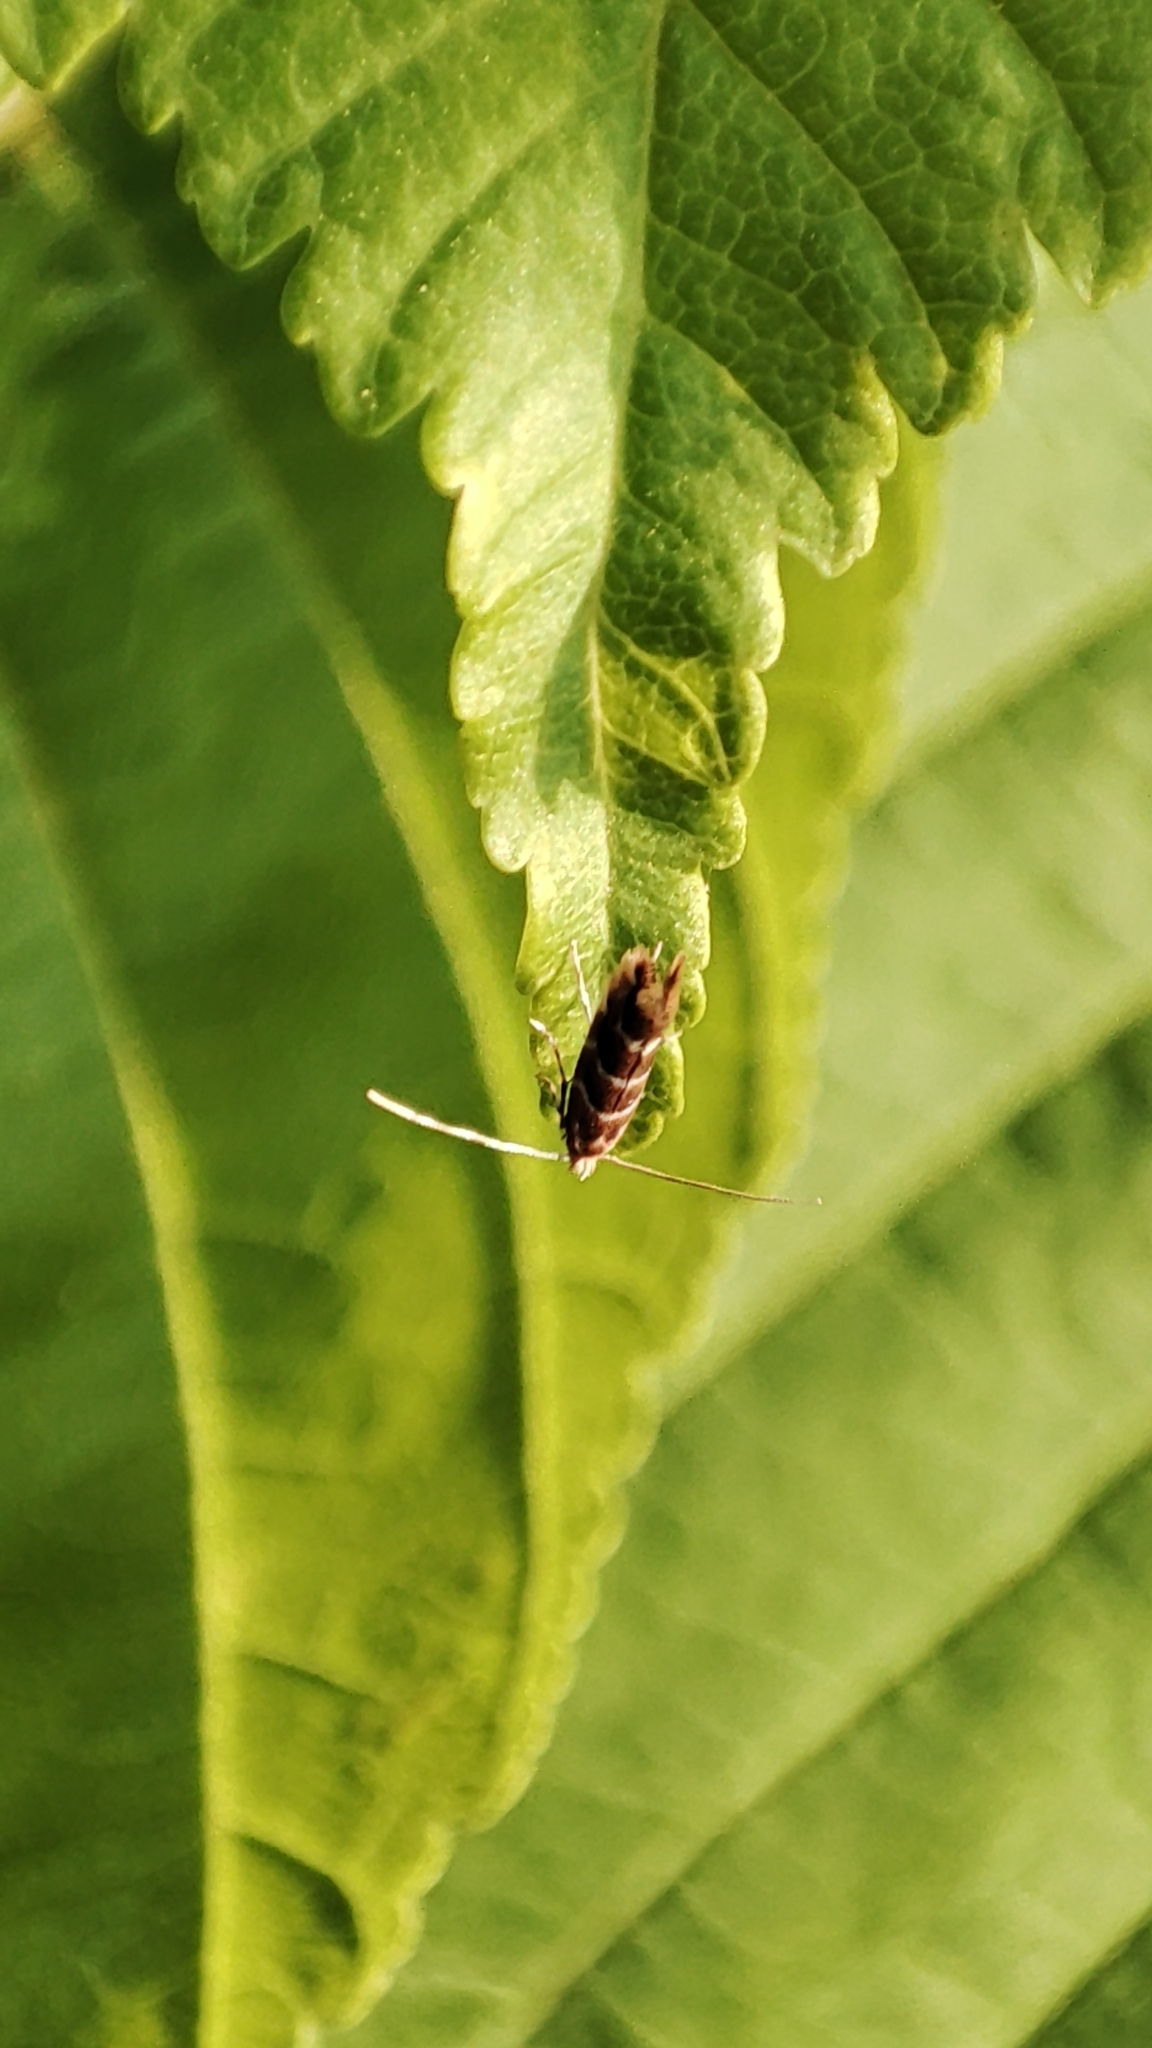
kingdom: Animalia
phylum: Arthropoda
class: Insecta
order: Lepidoptera
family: Gracillariidae
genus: Cameraria
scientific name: Cameraria ohridella
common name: Horse-chestnut leaf-miner
